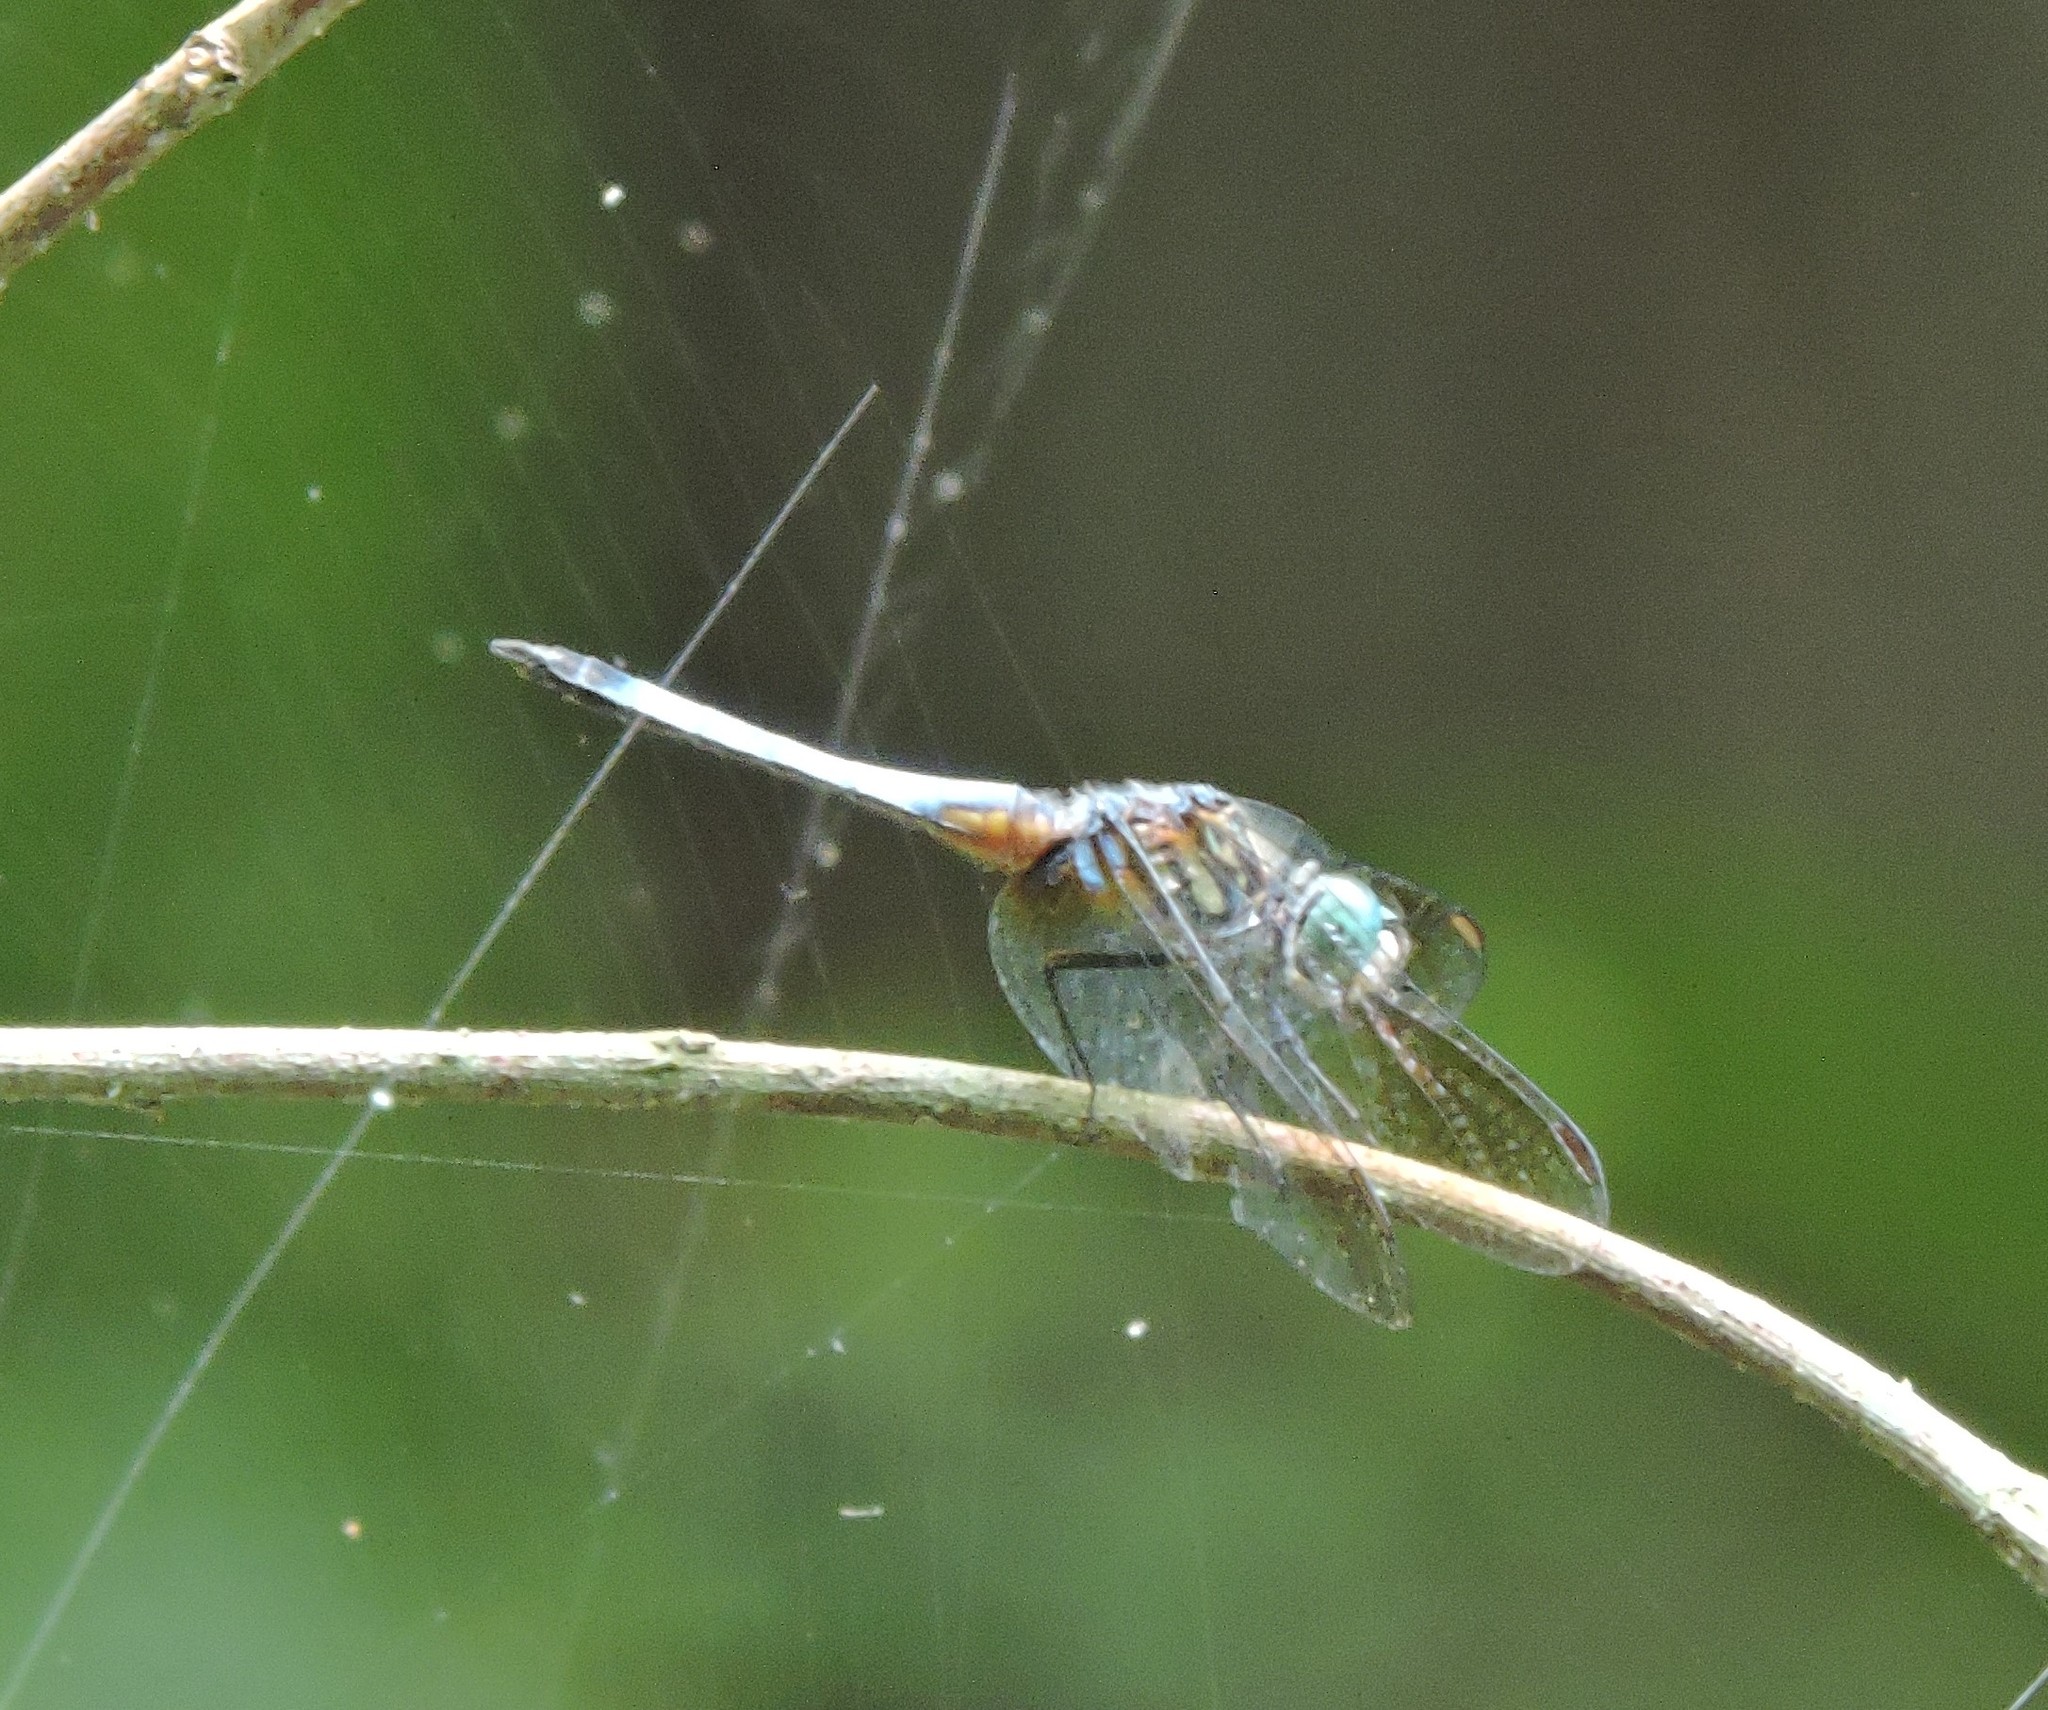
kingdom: Animalia
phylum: Arthropoda
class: Insecta
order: Odonata
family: Libellulidae
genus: Pachydiplax
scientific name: Pachydiplax longipennis
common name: Blue dasher
